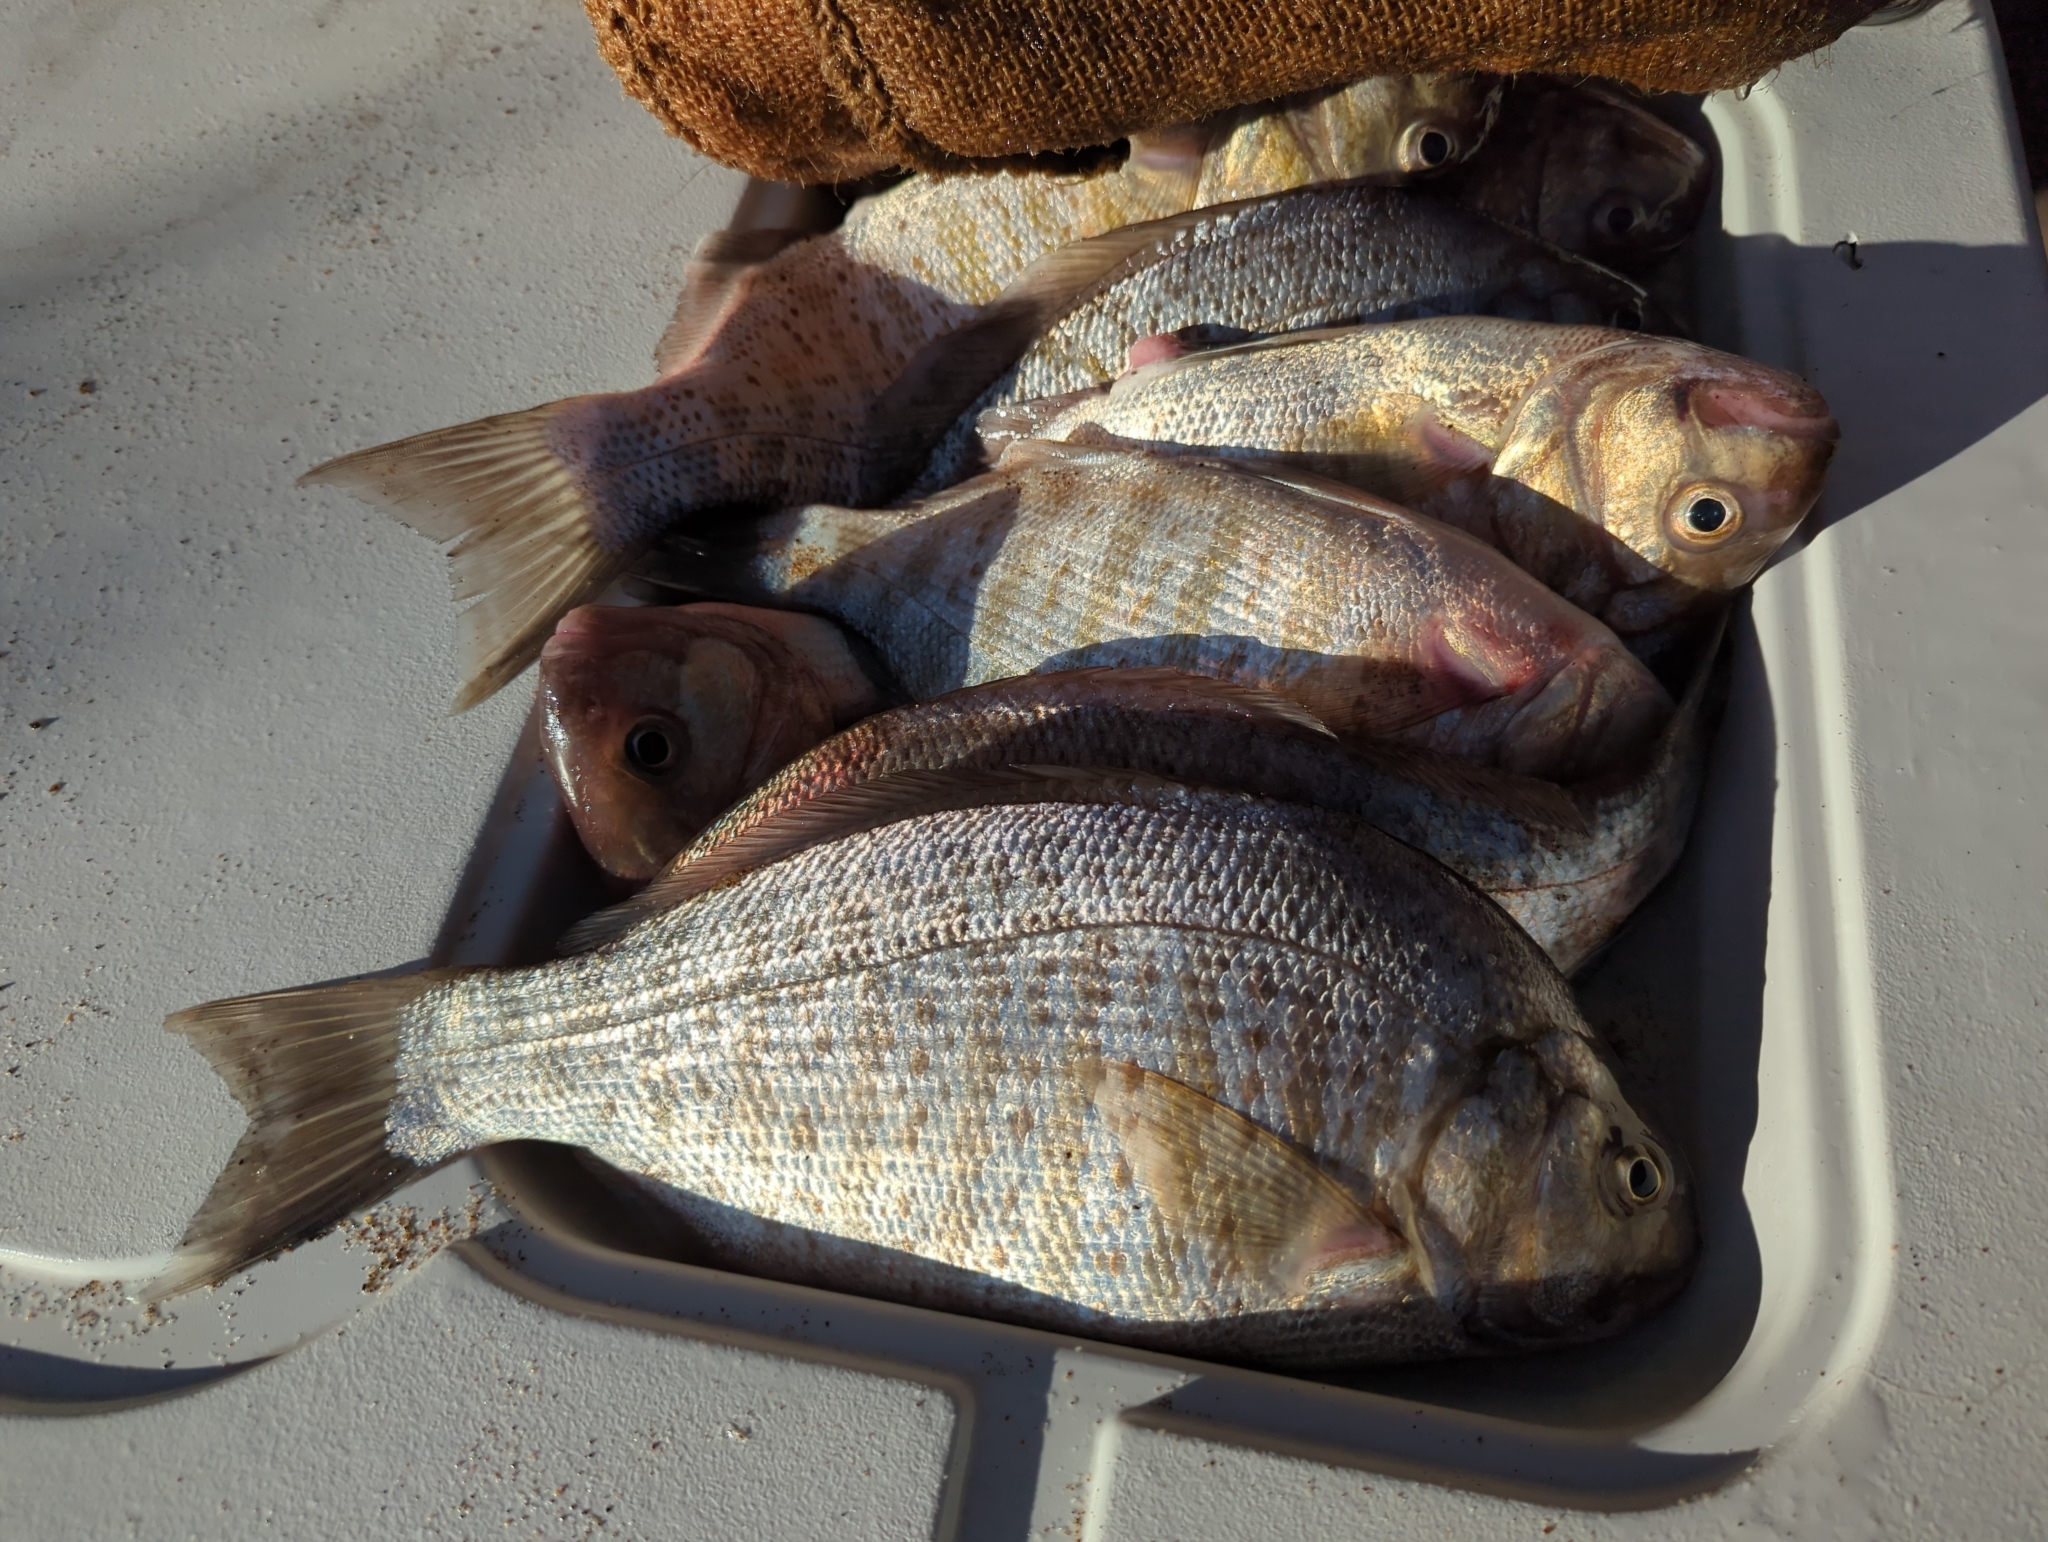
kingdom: Animalia
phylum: Chordata
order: Perciformes
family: Embiotocidae
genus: Amphistichus
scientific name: Amphistichus argenteus
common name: Barred surfperch
